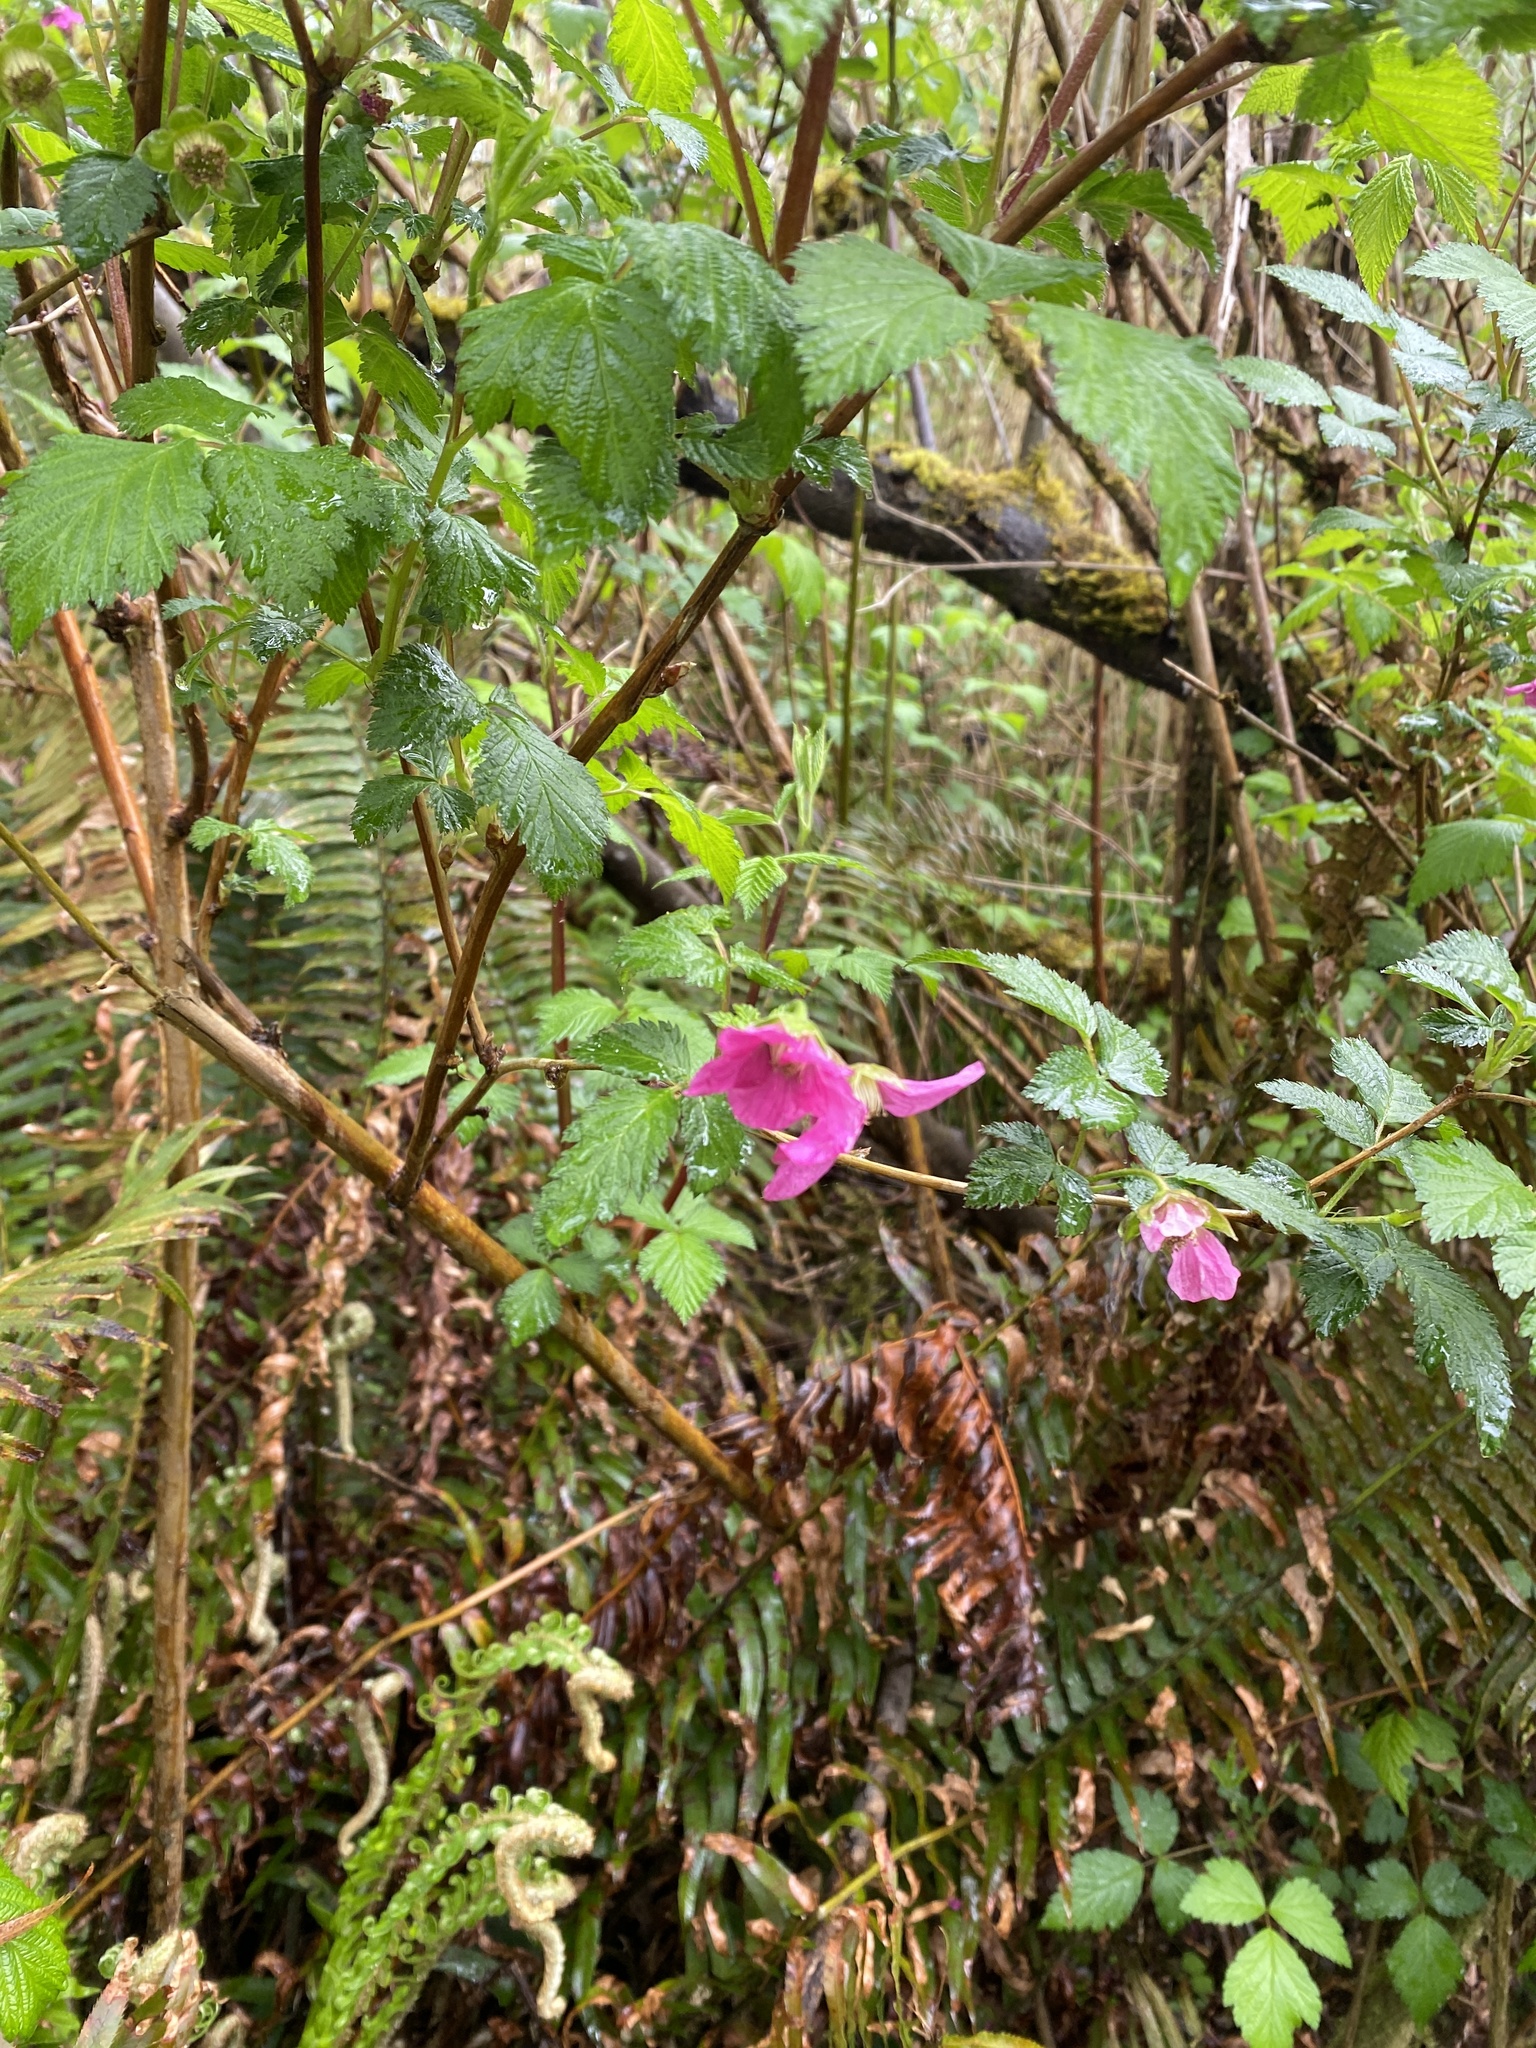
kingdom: Plantae
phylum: Tracheophyta
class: Magnoliopsida
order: Rosales
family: Rosaceae
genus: Rubus
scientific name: Rubus spectabilis
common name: Salmonberry
